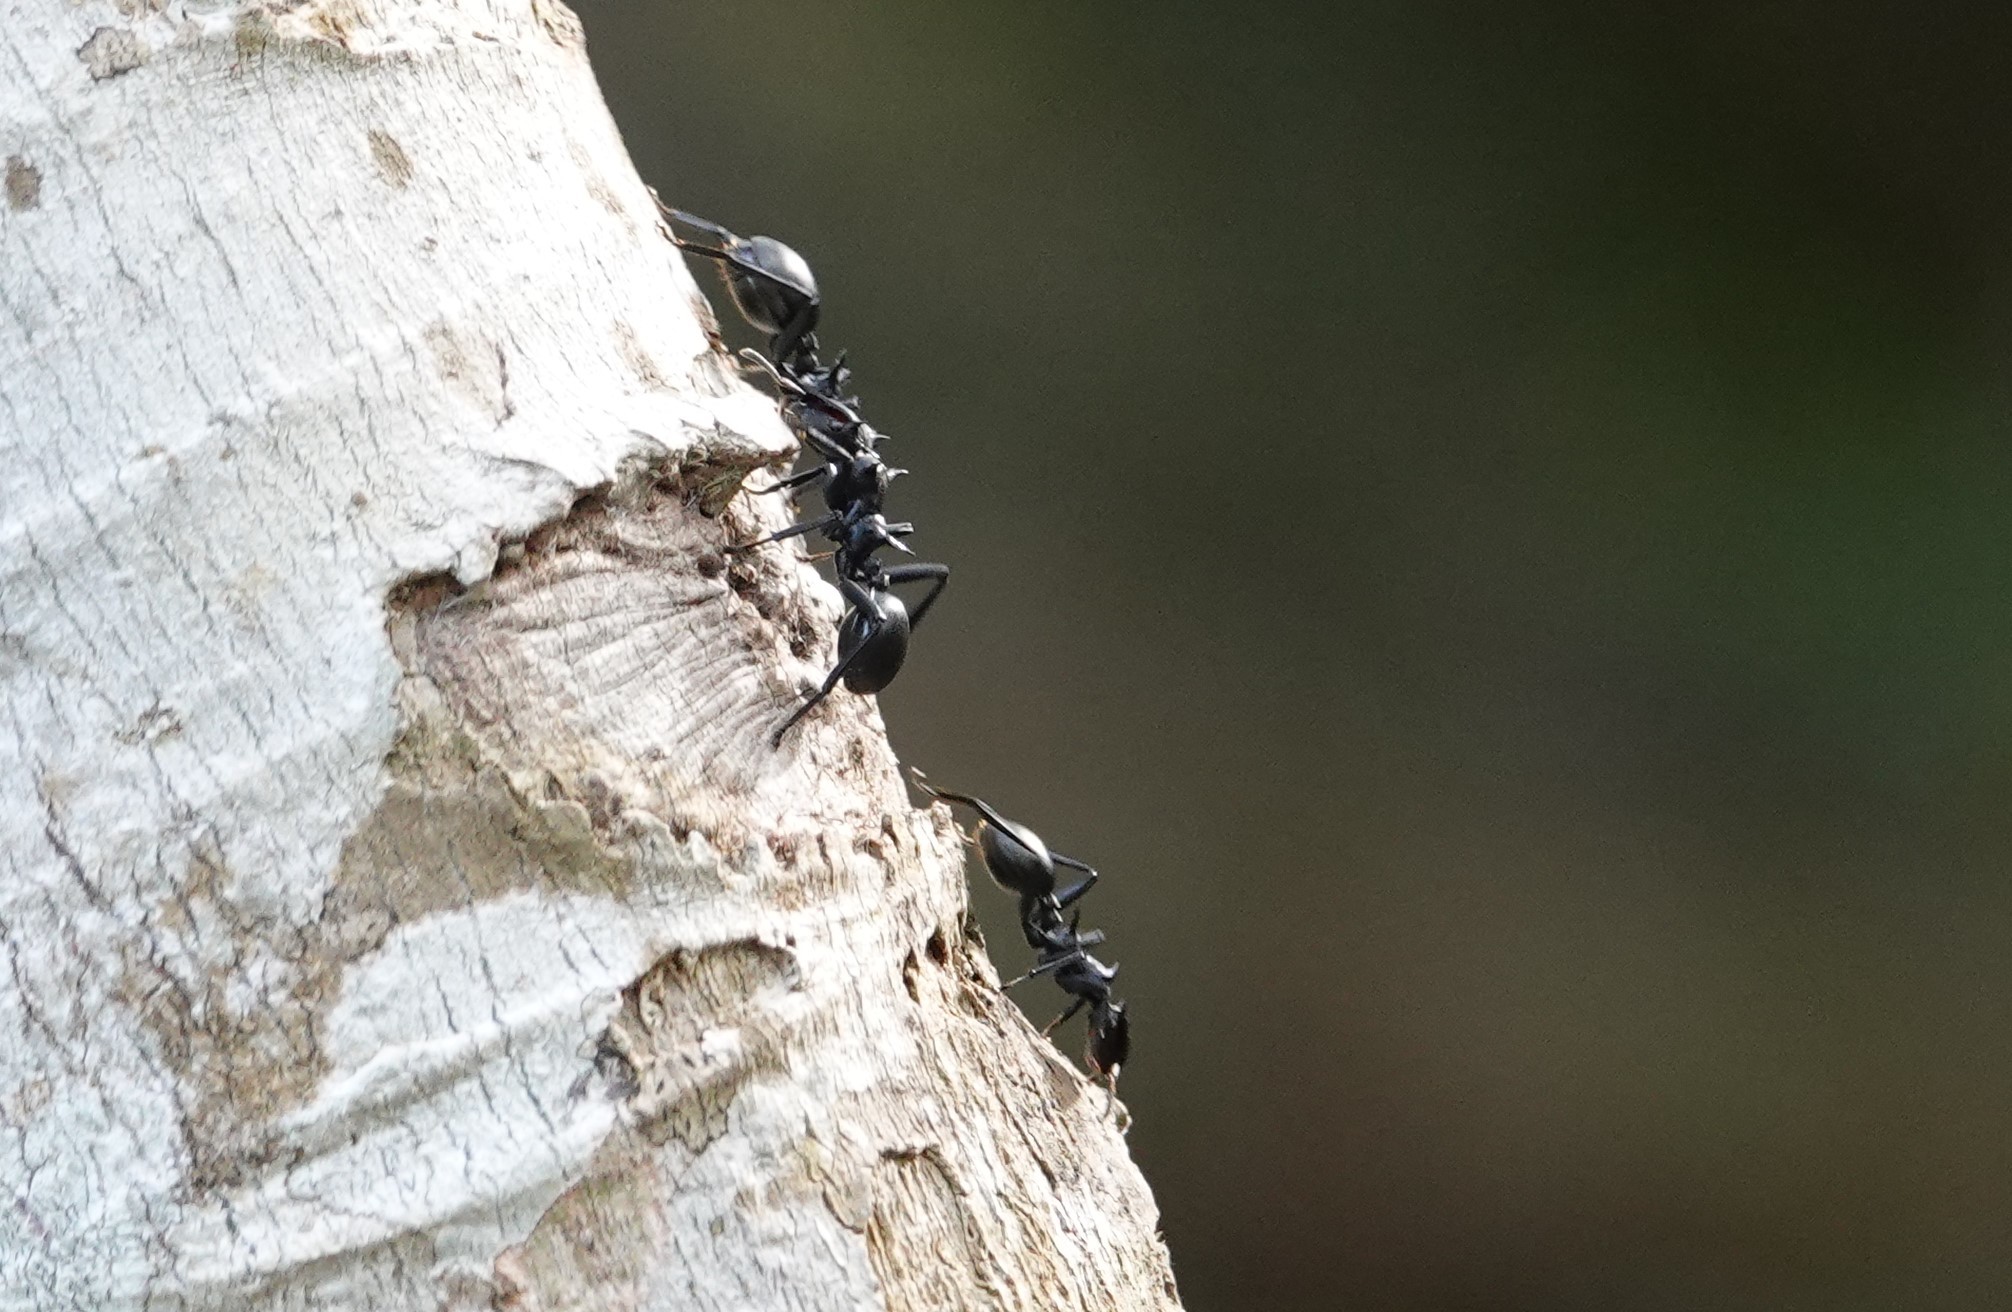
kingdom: Animalia
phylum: Arthropoda
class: Insecta
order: Hymenoptera
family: Formicidae
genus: Cephalotes
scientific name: Cephalotes atratus
